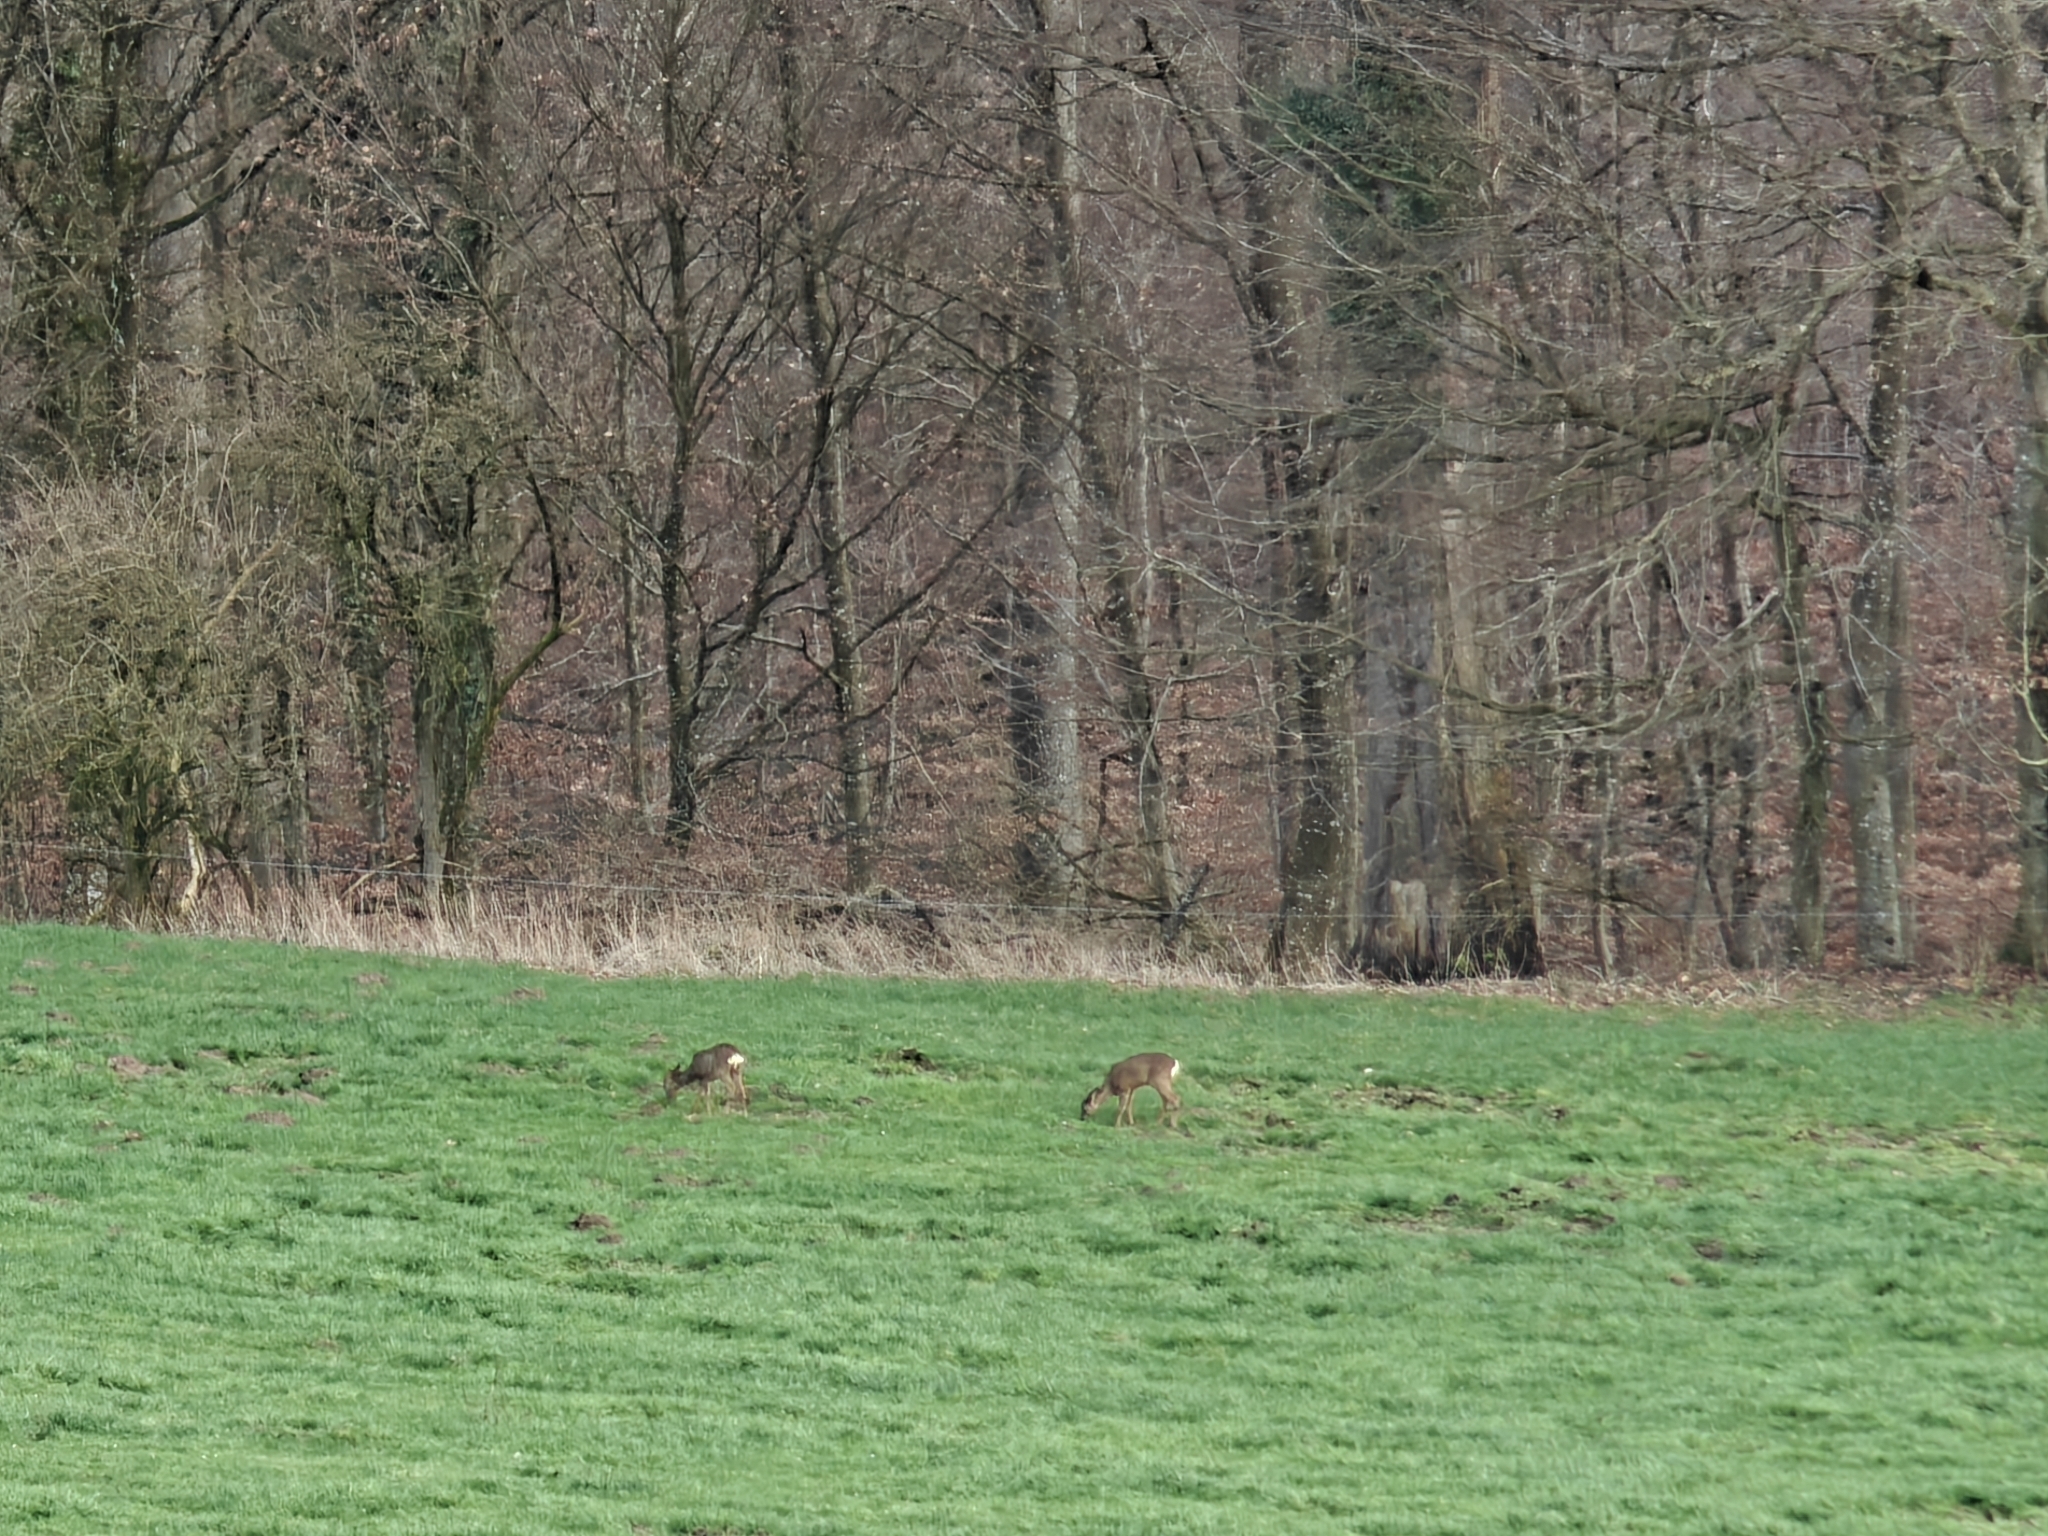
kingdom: Animalia
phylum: Chordata
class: Mammalia
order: Artiodactyla
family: Cervidae
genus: Capreolus
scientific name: Capreolus capreolus
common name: Western roe deer
